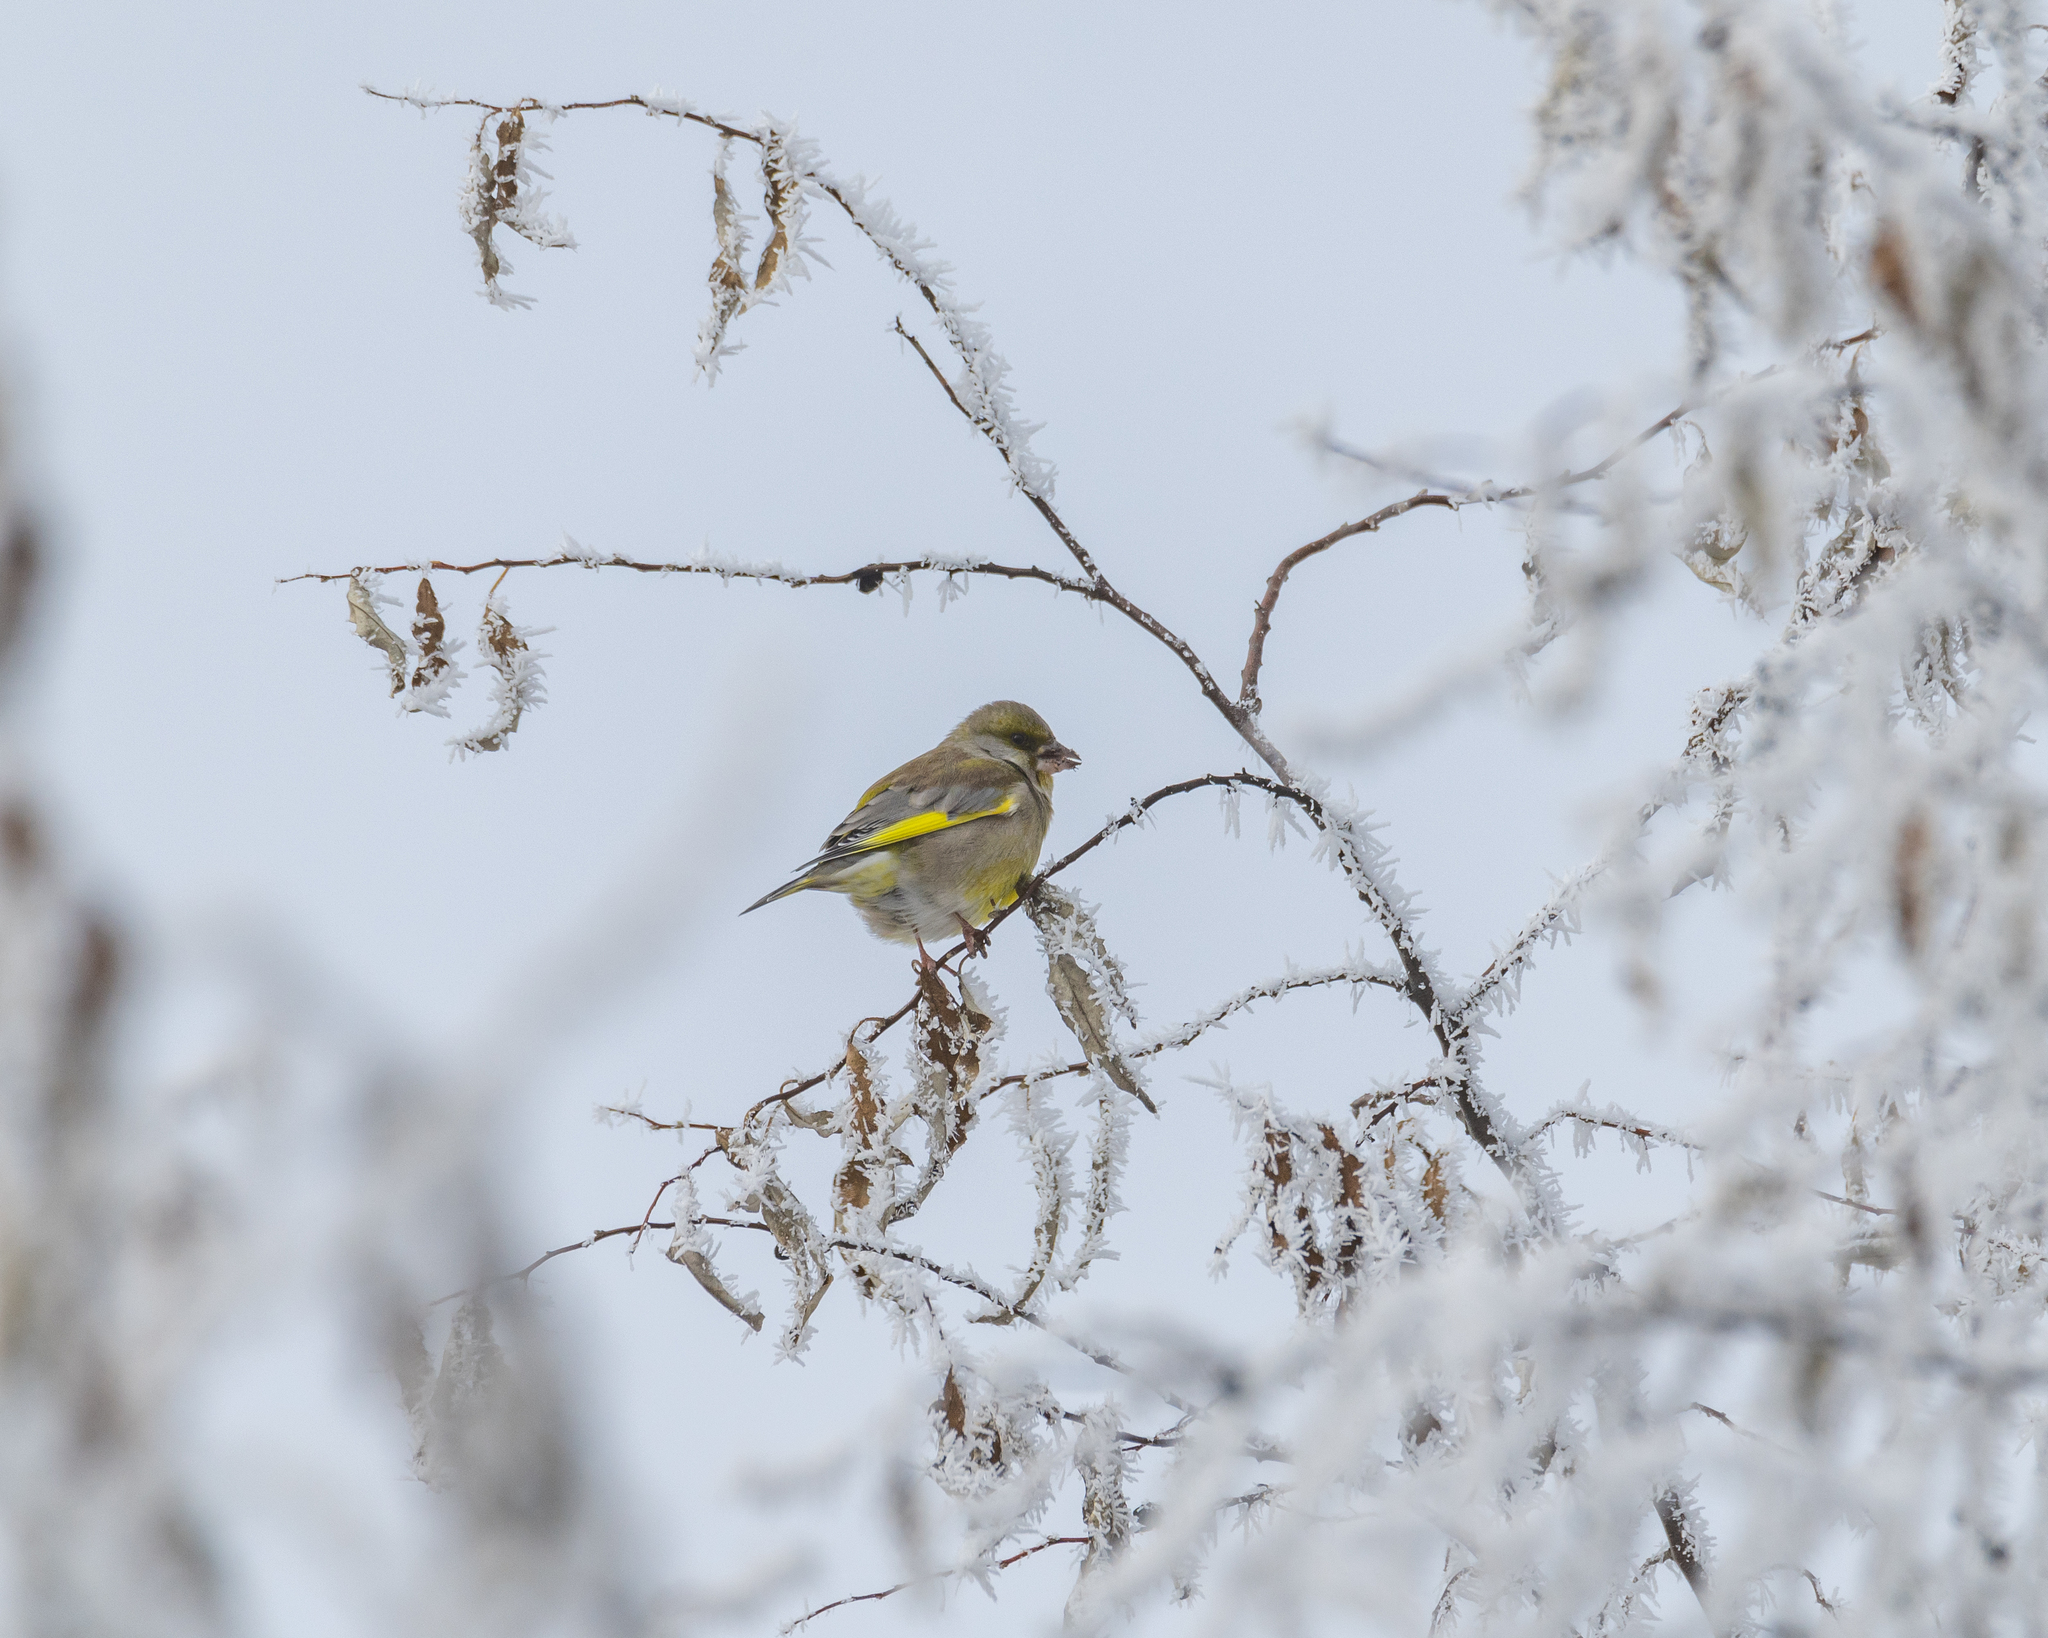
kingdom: Plantae
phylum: Tracheophyta
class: Liliopsida
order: Poales
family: Poaceae
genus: Chloris
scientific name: Chloris chloris
